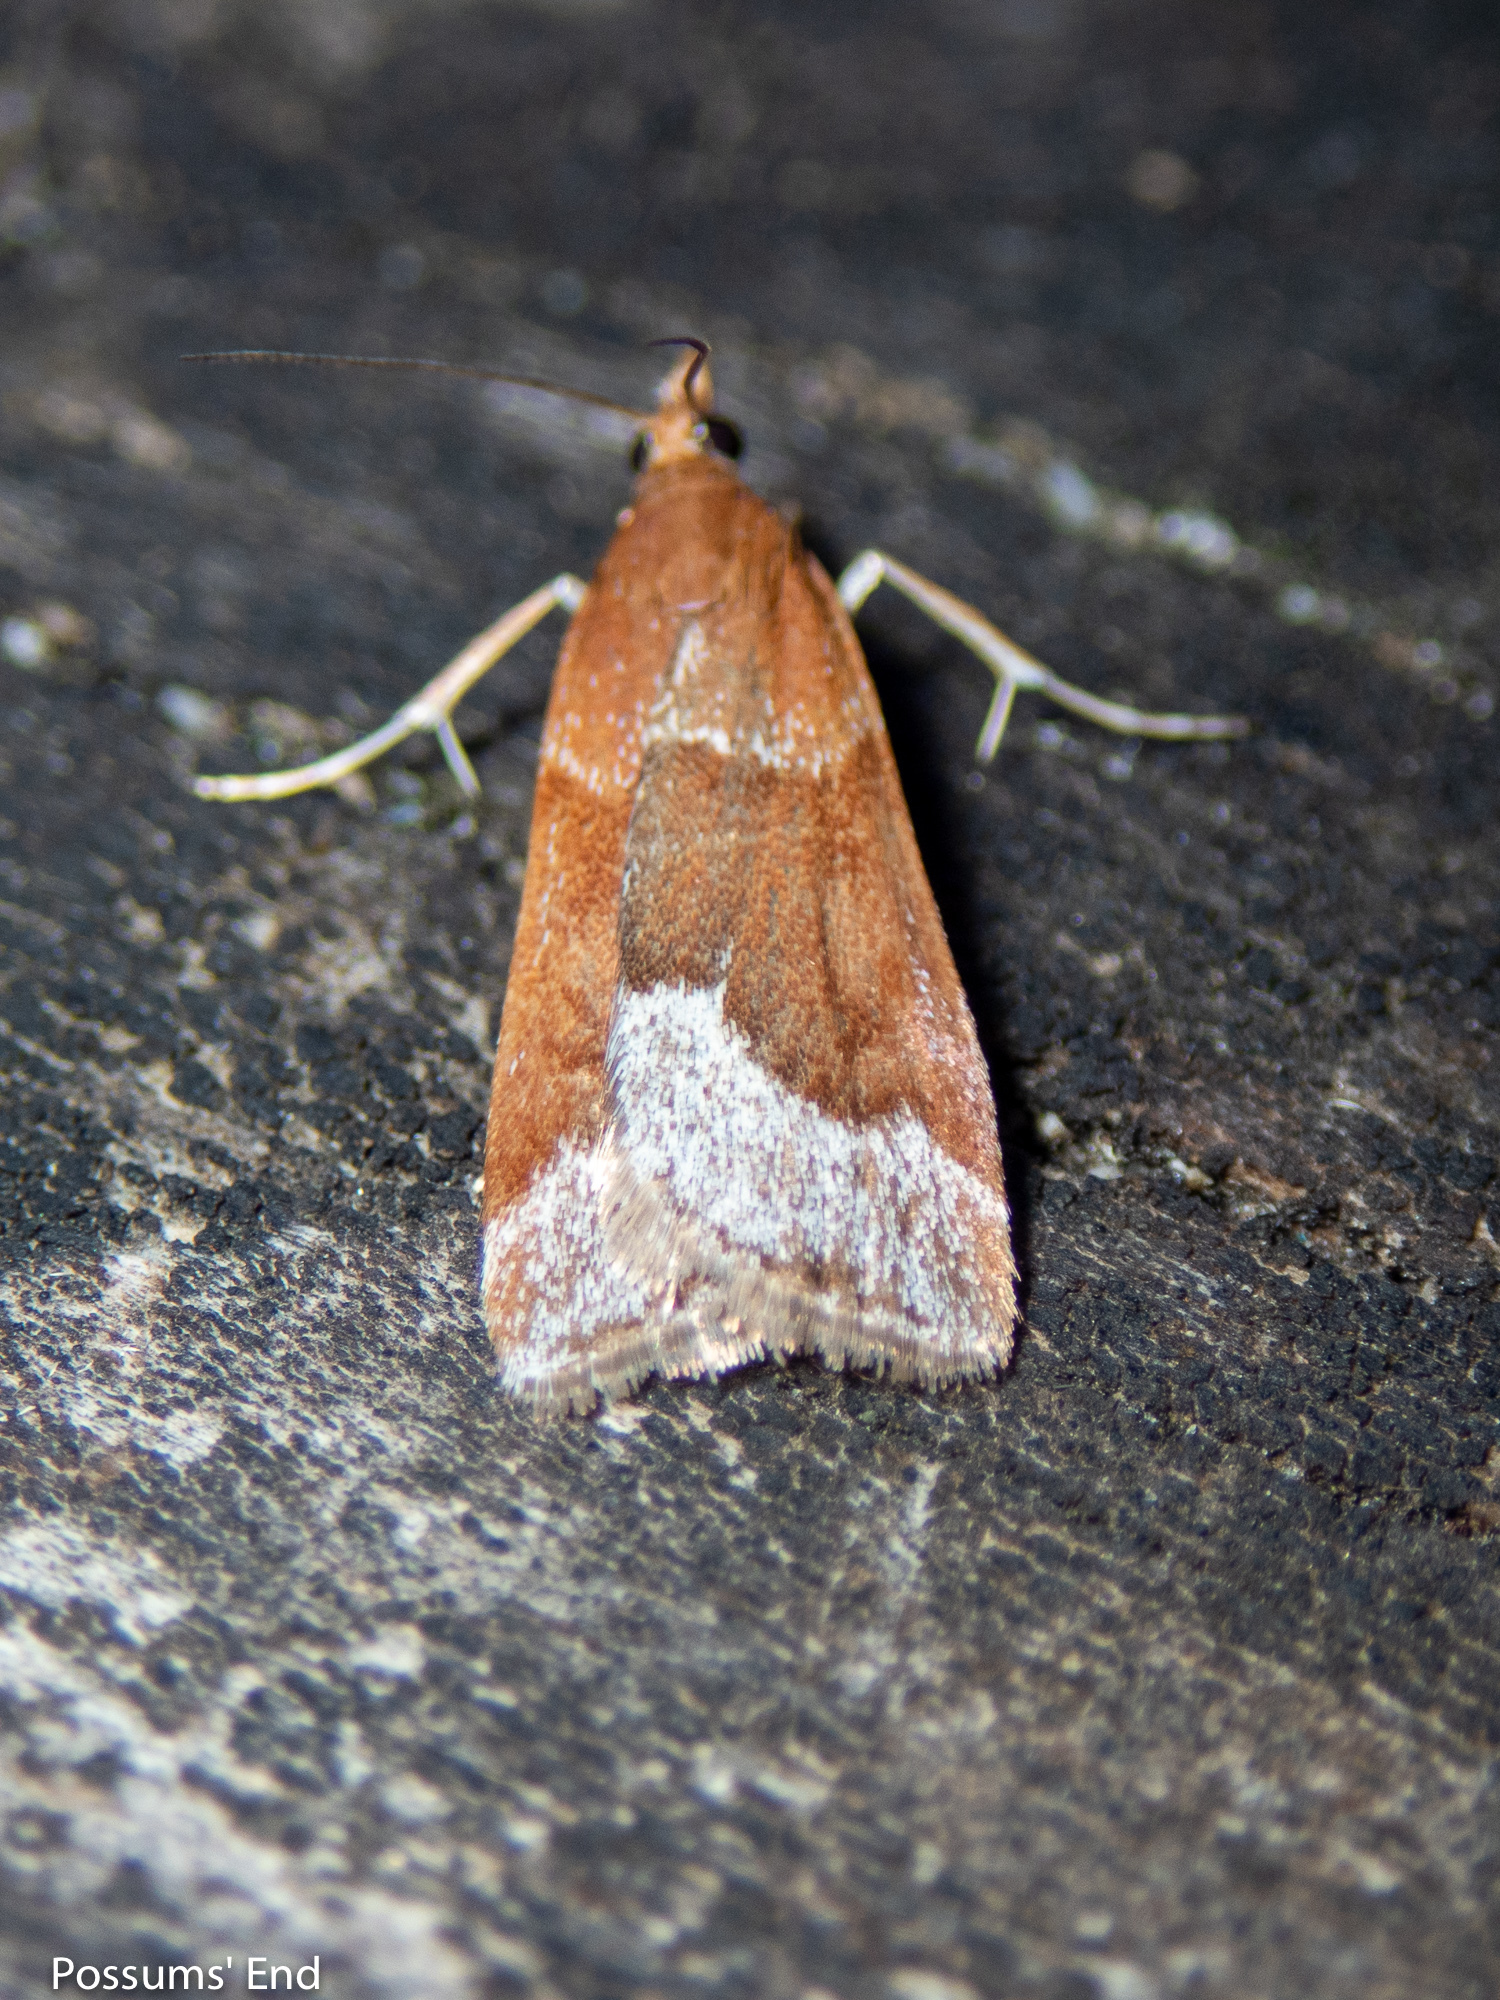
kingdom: Animalia
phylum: Arthropoda
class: Insecta
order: Lepidoptera
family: Crambidae
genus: Eudonia
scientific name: Eudonia feredayi
